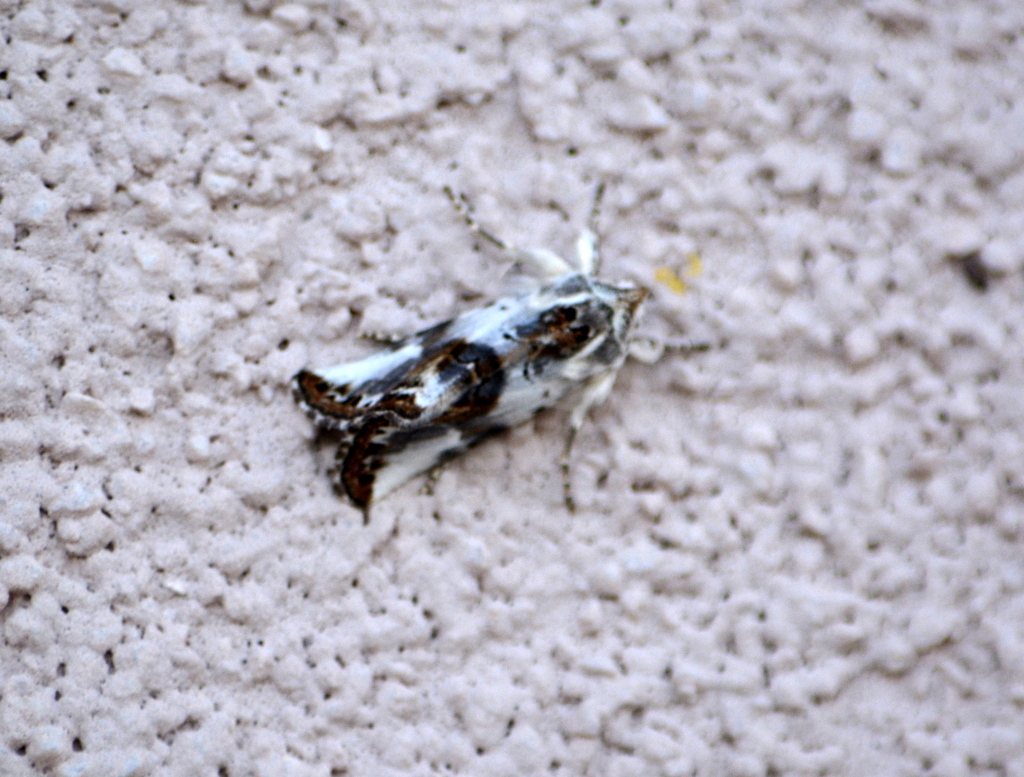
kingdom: Animalia
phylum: Arthropoda
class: Insecta
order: Lepidoptera
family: Noctuidae
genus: Calophasia
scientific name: Calophasia opalina
